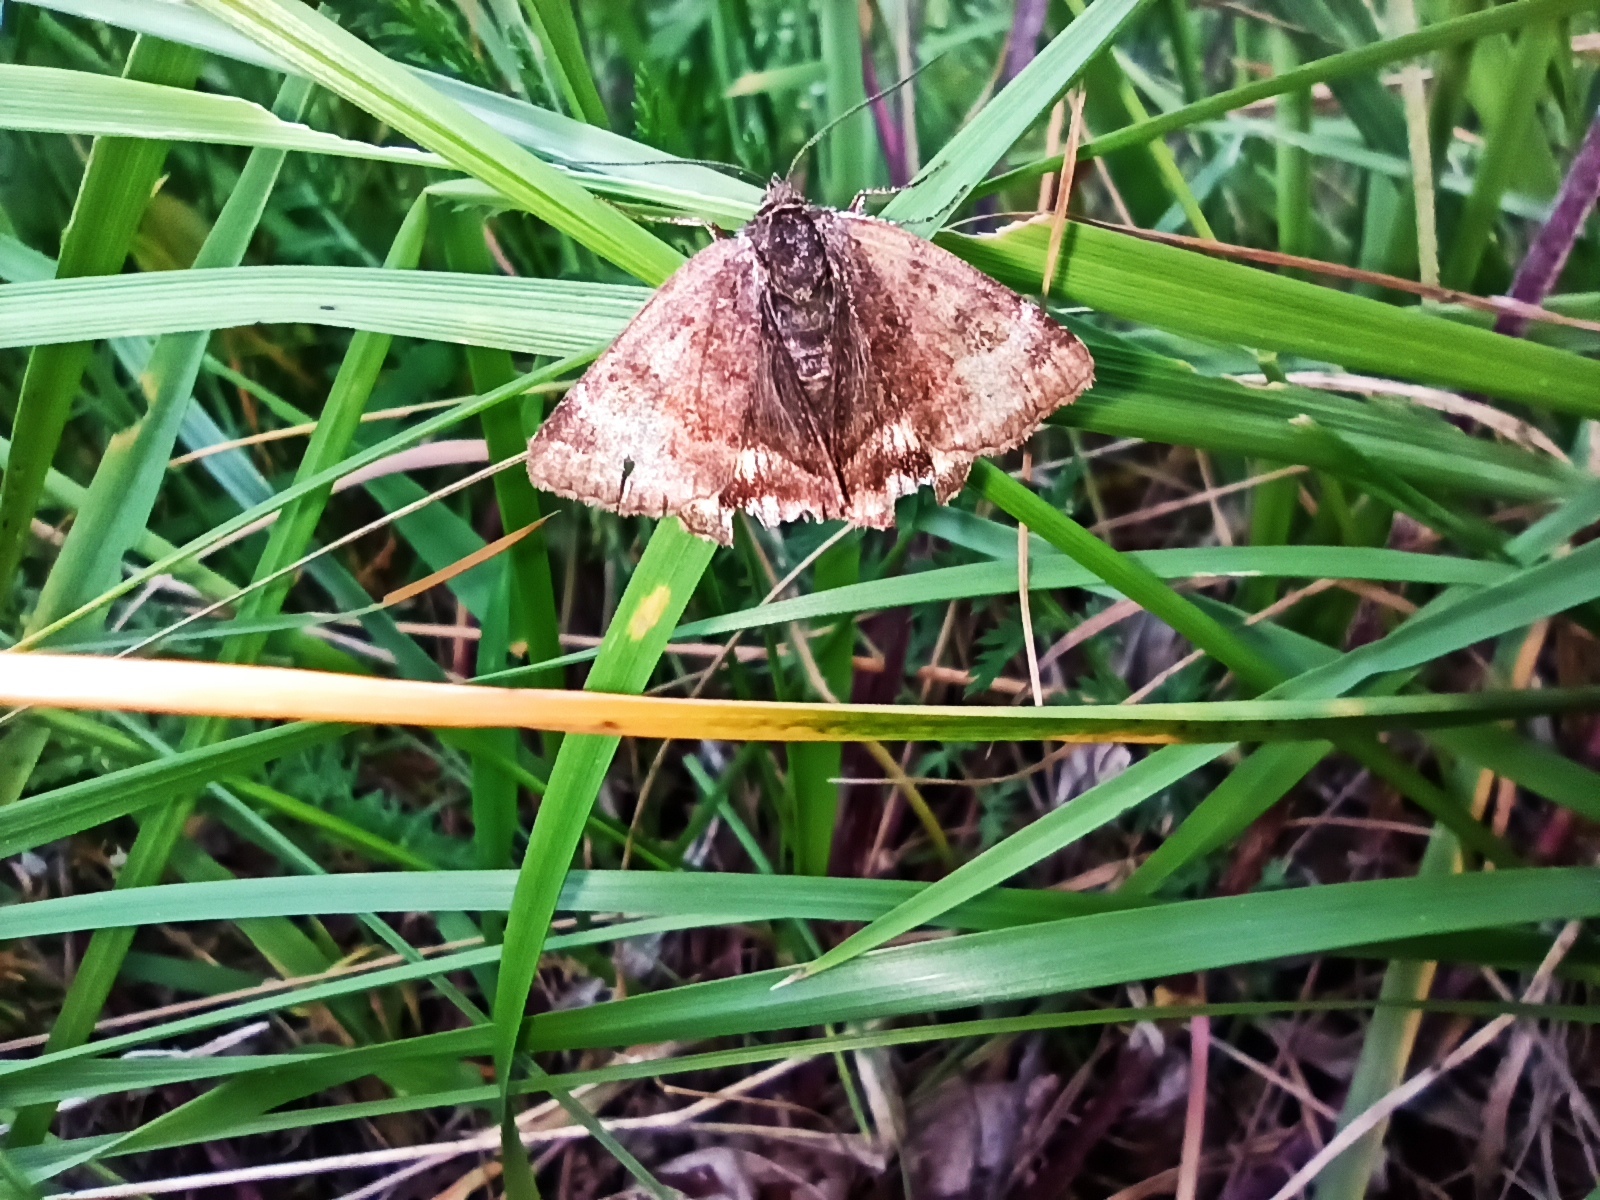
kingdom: Animalia
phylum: Arthropoda
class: Insecta
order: Lepidoptera
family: Erebidae
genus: Euclidia
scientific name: Euclidia glyphica
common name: Burnet companion
